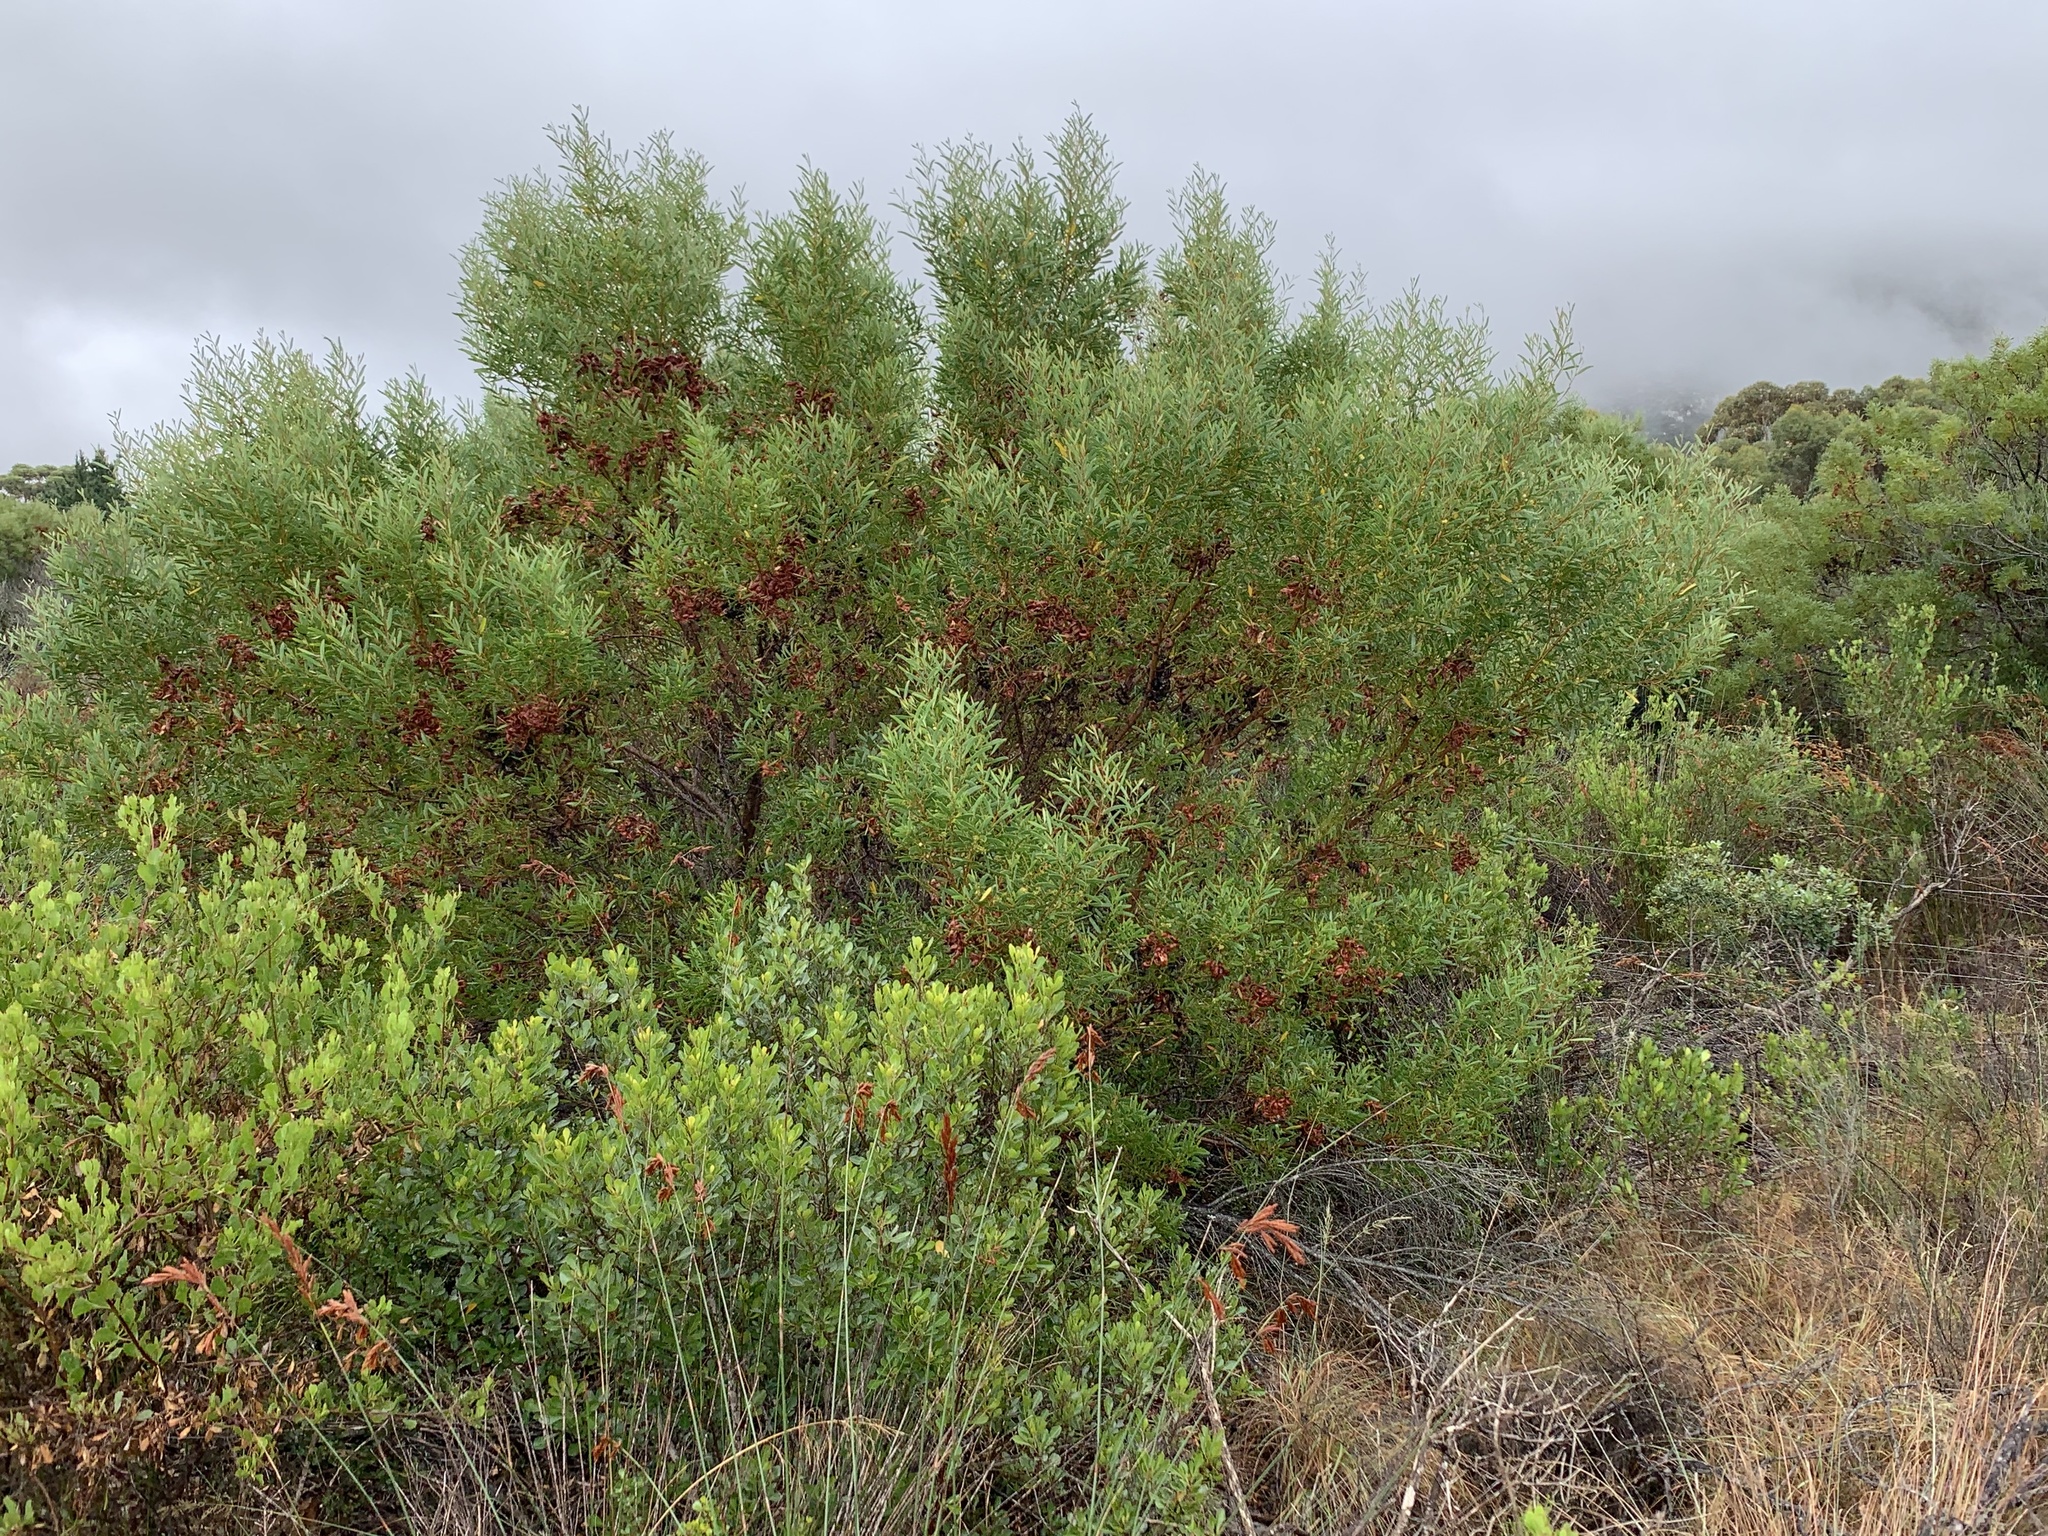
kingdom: Plantae
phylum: Tracheophyta
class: Magnoliopsida
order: Fabales
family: Fabaceae
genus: Acacia
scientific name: Acacia cyclops
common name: Coastal wattle
